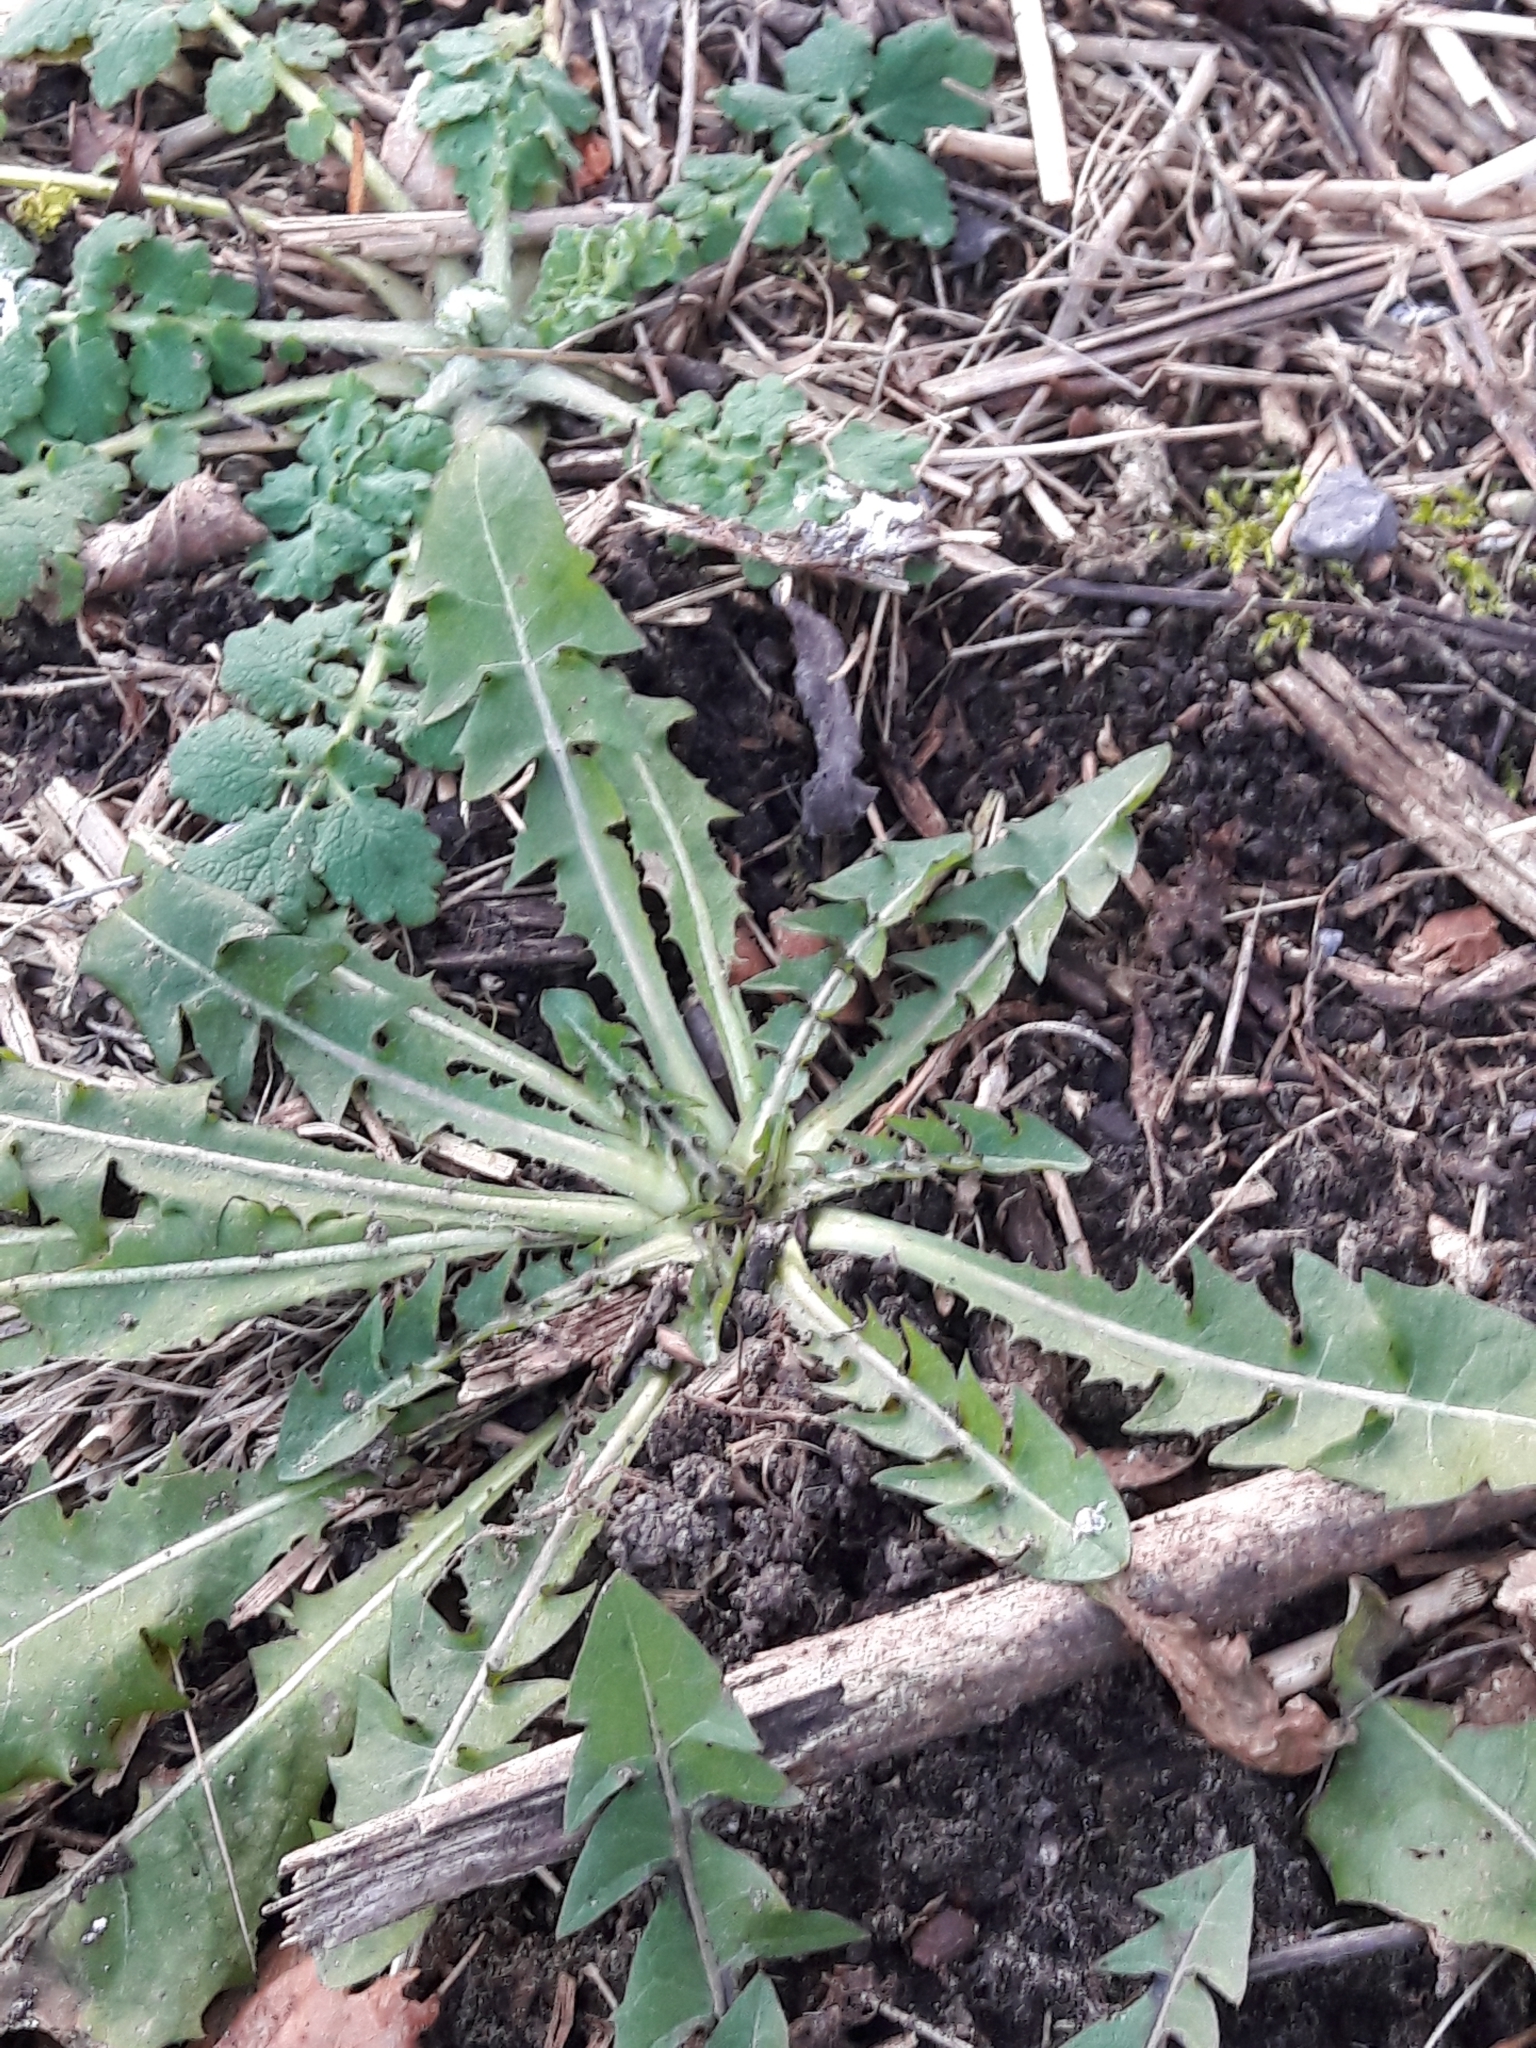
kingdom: Plantae
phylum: Tracheophyta
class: Magnoliopsida
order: Asterales
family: Asteraceae
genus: Taraxacum
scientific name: Taraxacum officinale
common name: Common dandelion
